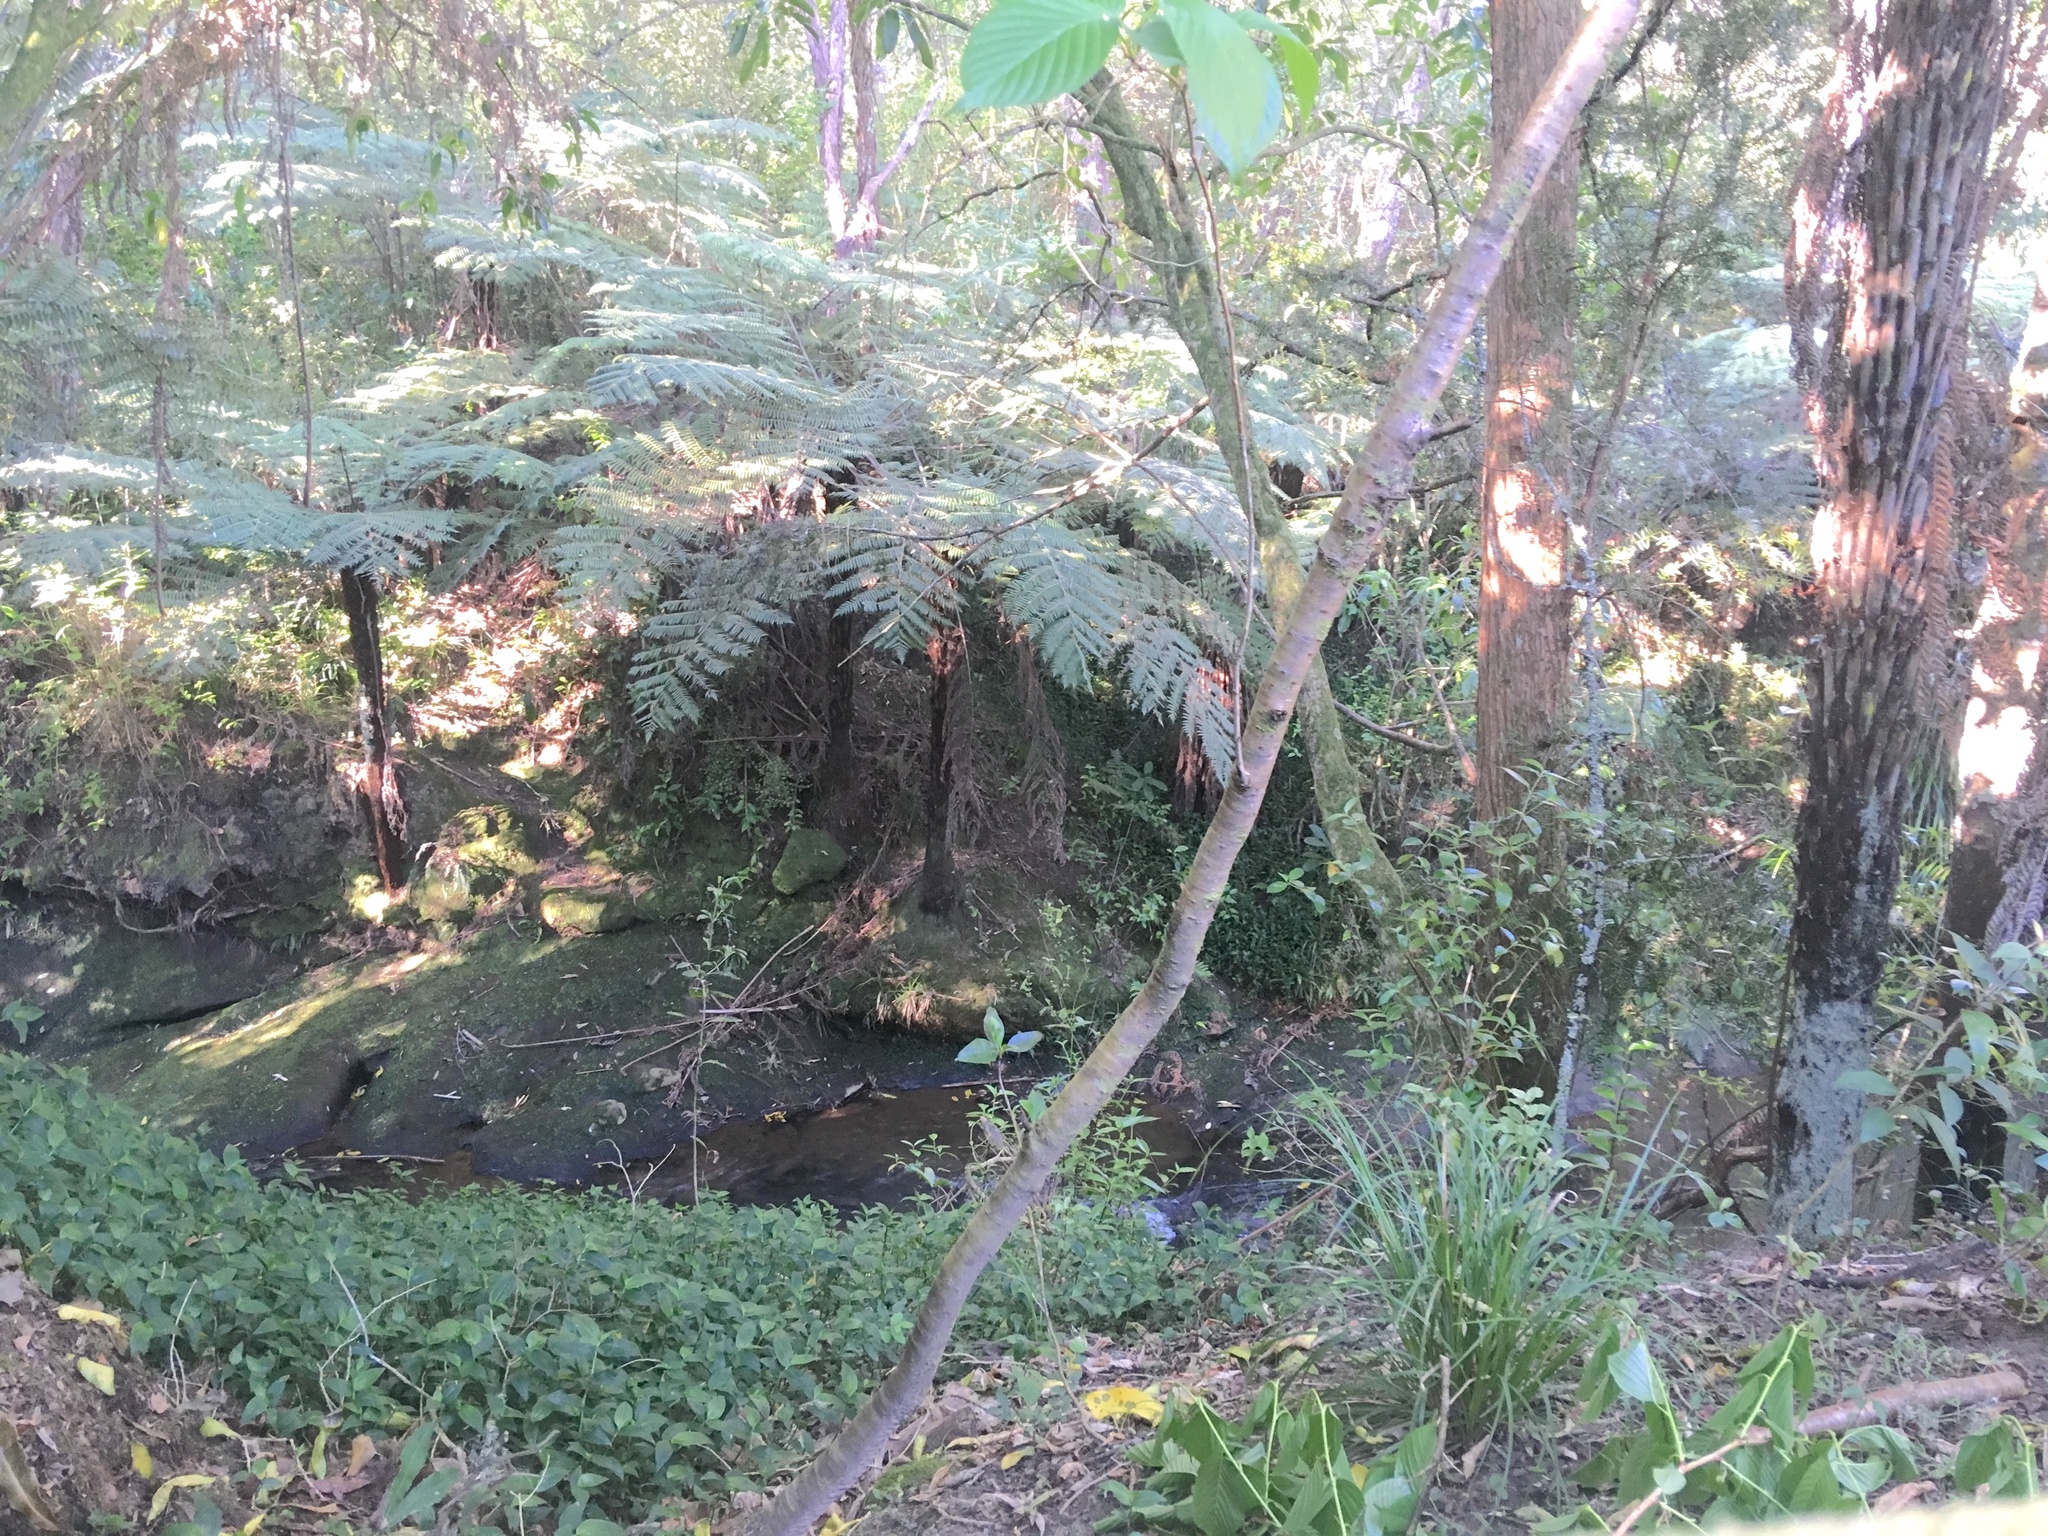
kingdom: Plantae
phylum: Tracheophyta
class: Polypodiopsida
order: Cyatheales
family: Cyatheaceae
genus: Alsophila
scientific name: Alsophila dealbata
